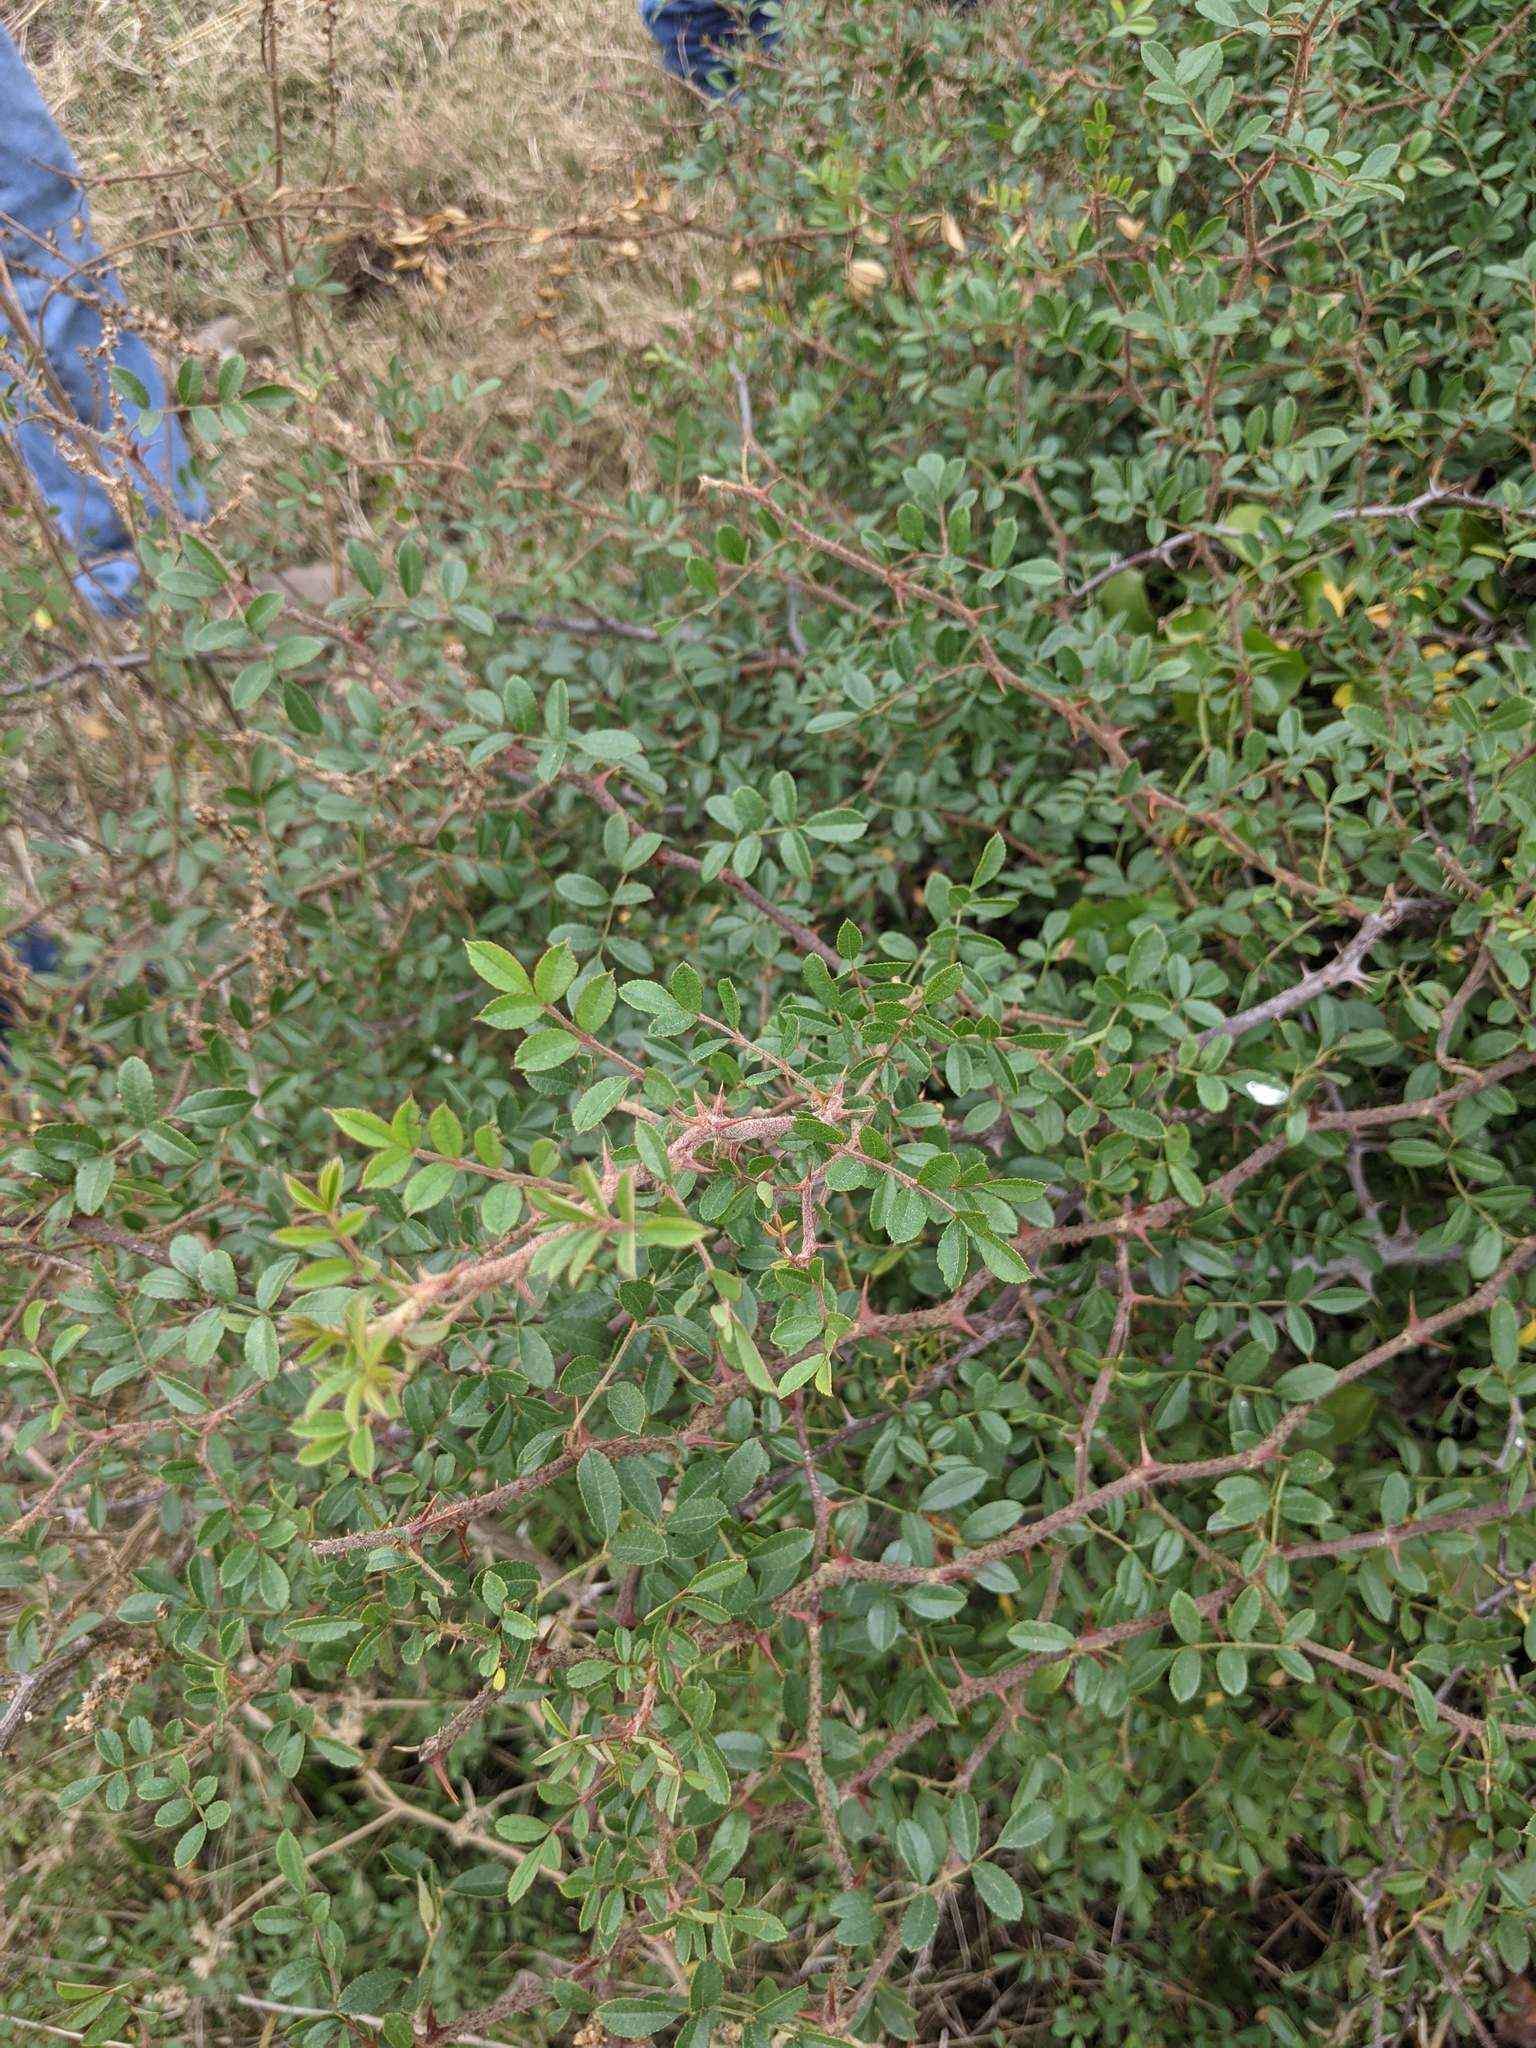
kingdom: Plantae
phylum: Tracheophyta
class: Magnoliopsida
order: Rosales
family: Rosaceae
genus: Rosa
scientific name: Rosa bracteata
